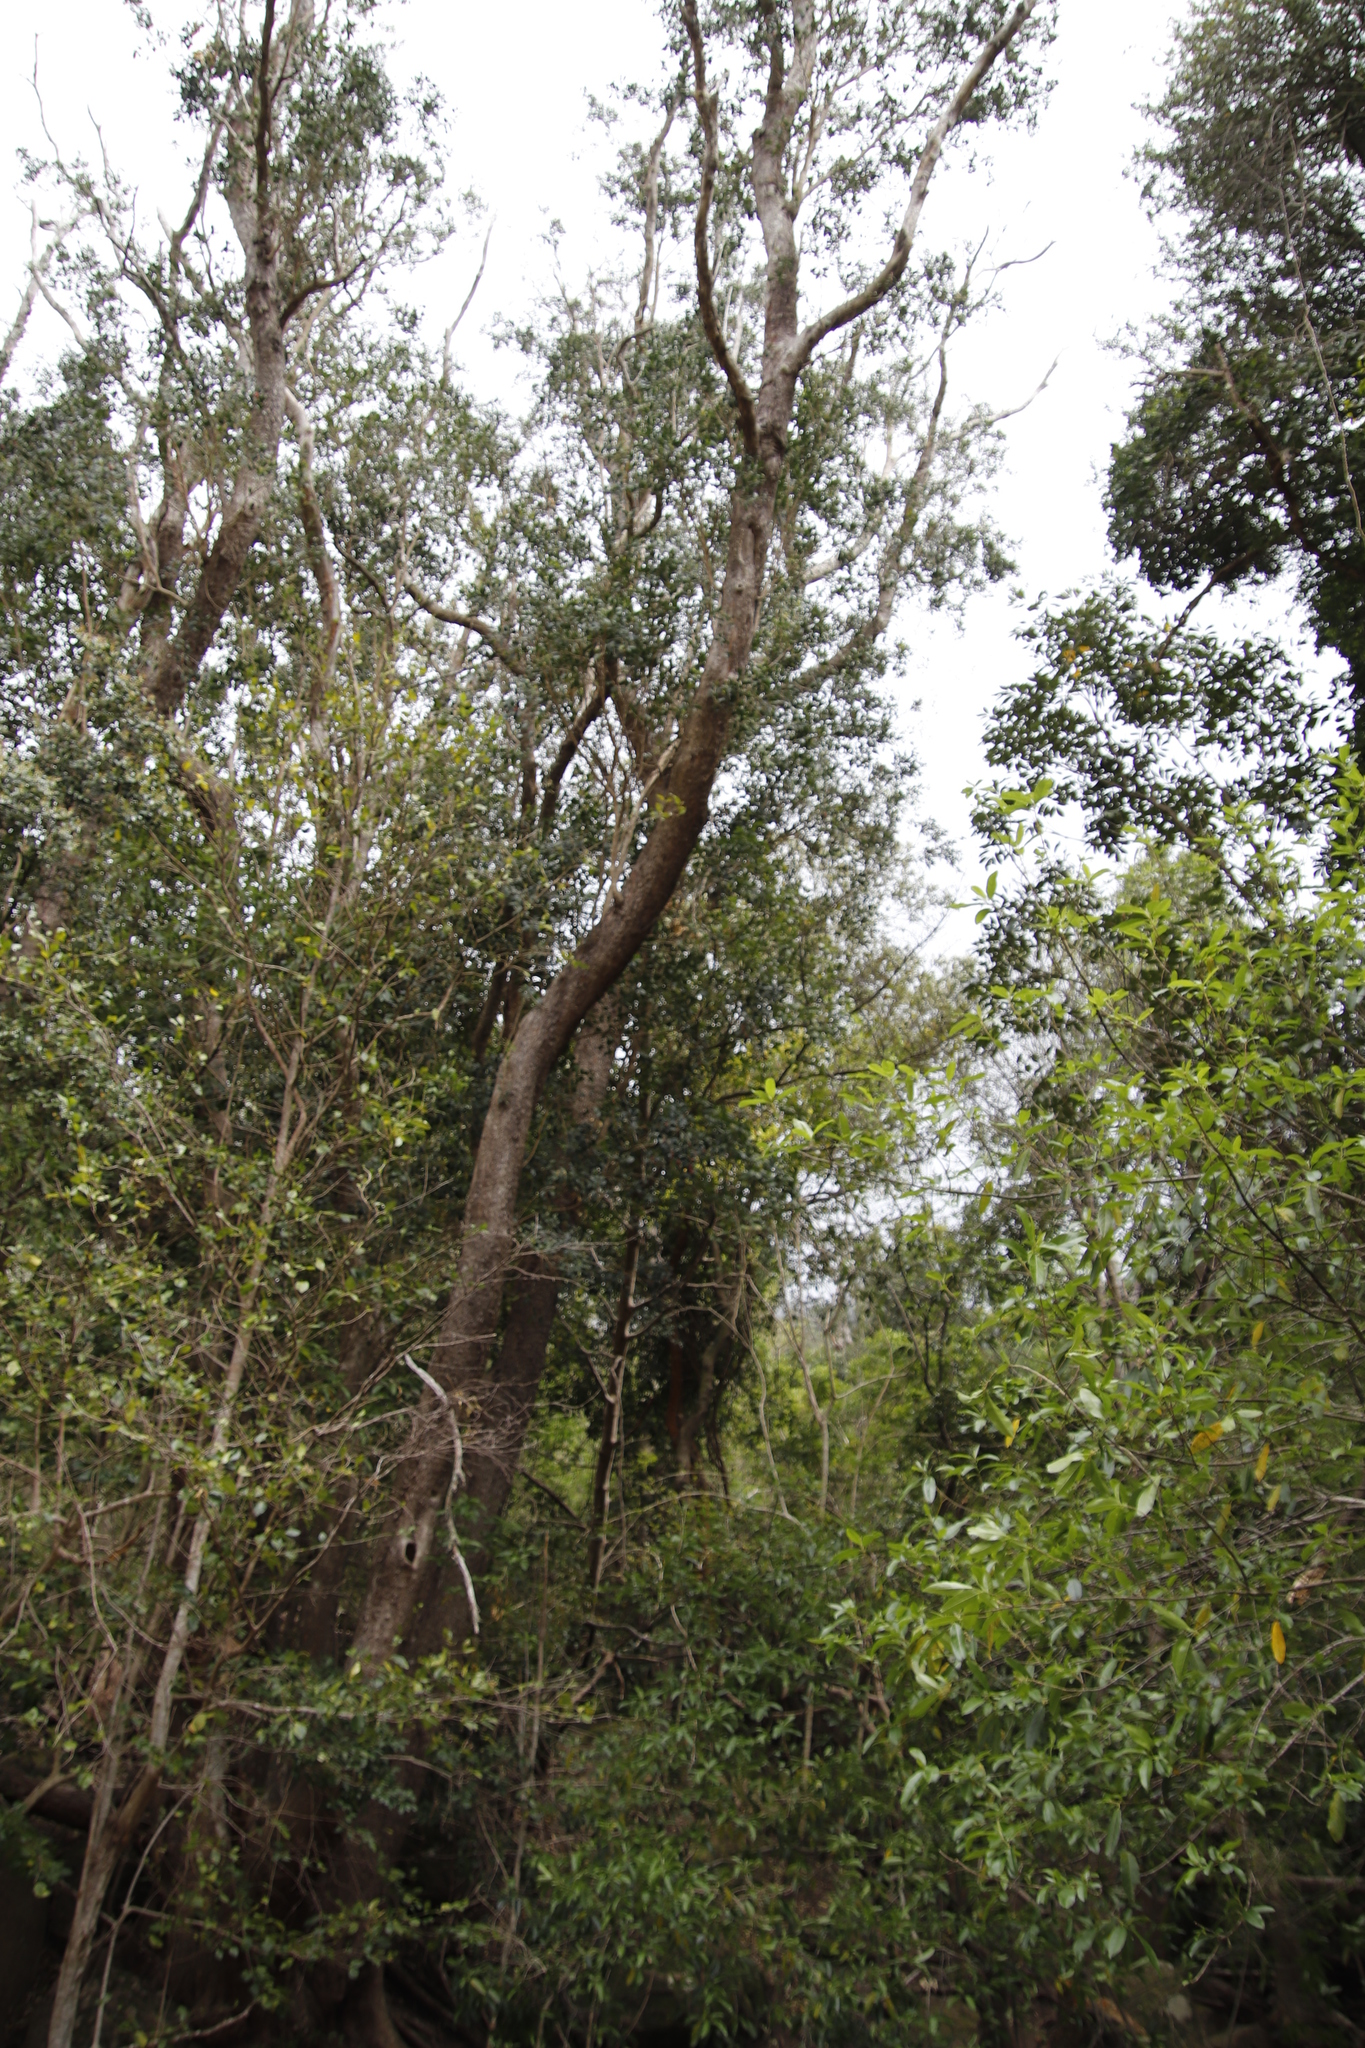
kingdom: Plantae
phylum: Tracheophyta
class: Magnoliopsida
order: Myrtales
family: Penaeaceae
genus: Olinia
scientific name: Olinia ventosa
